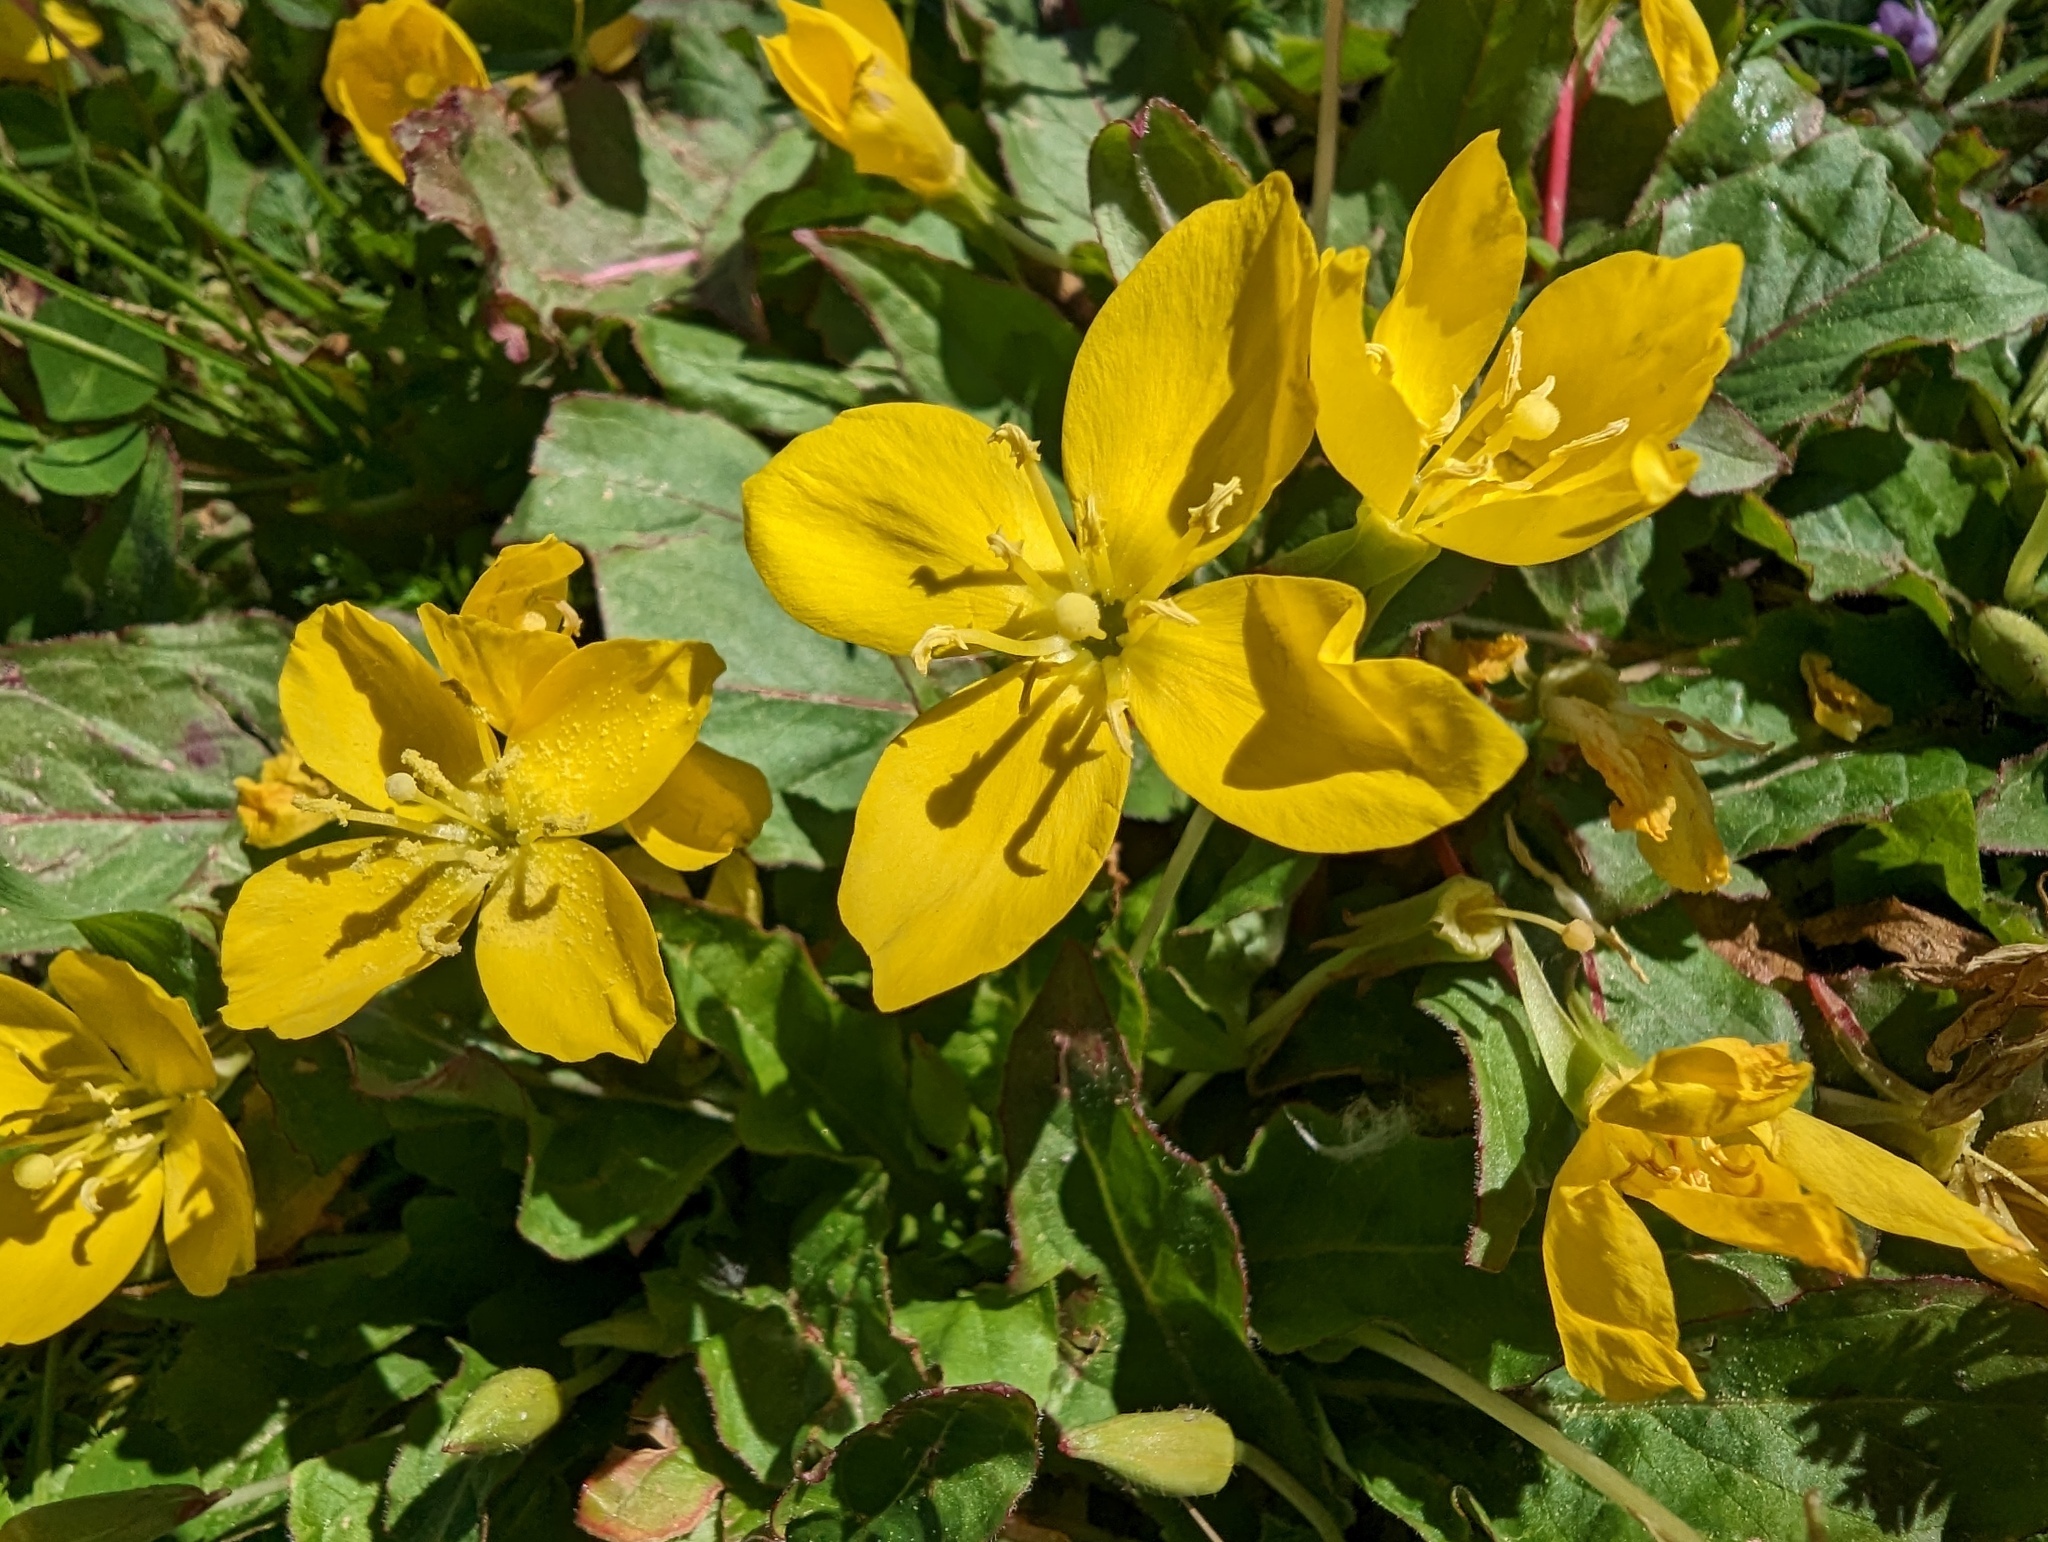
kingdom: Plantae
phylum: Tracheophyta
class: Magnoliopsida
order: Myrtales
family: Onagraceae
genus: Taraxia
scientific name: Taraxia ovata
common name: Goldeneggs
